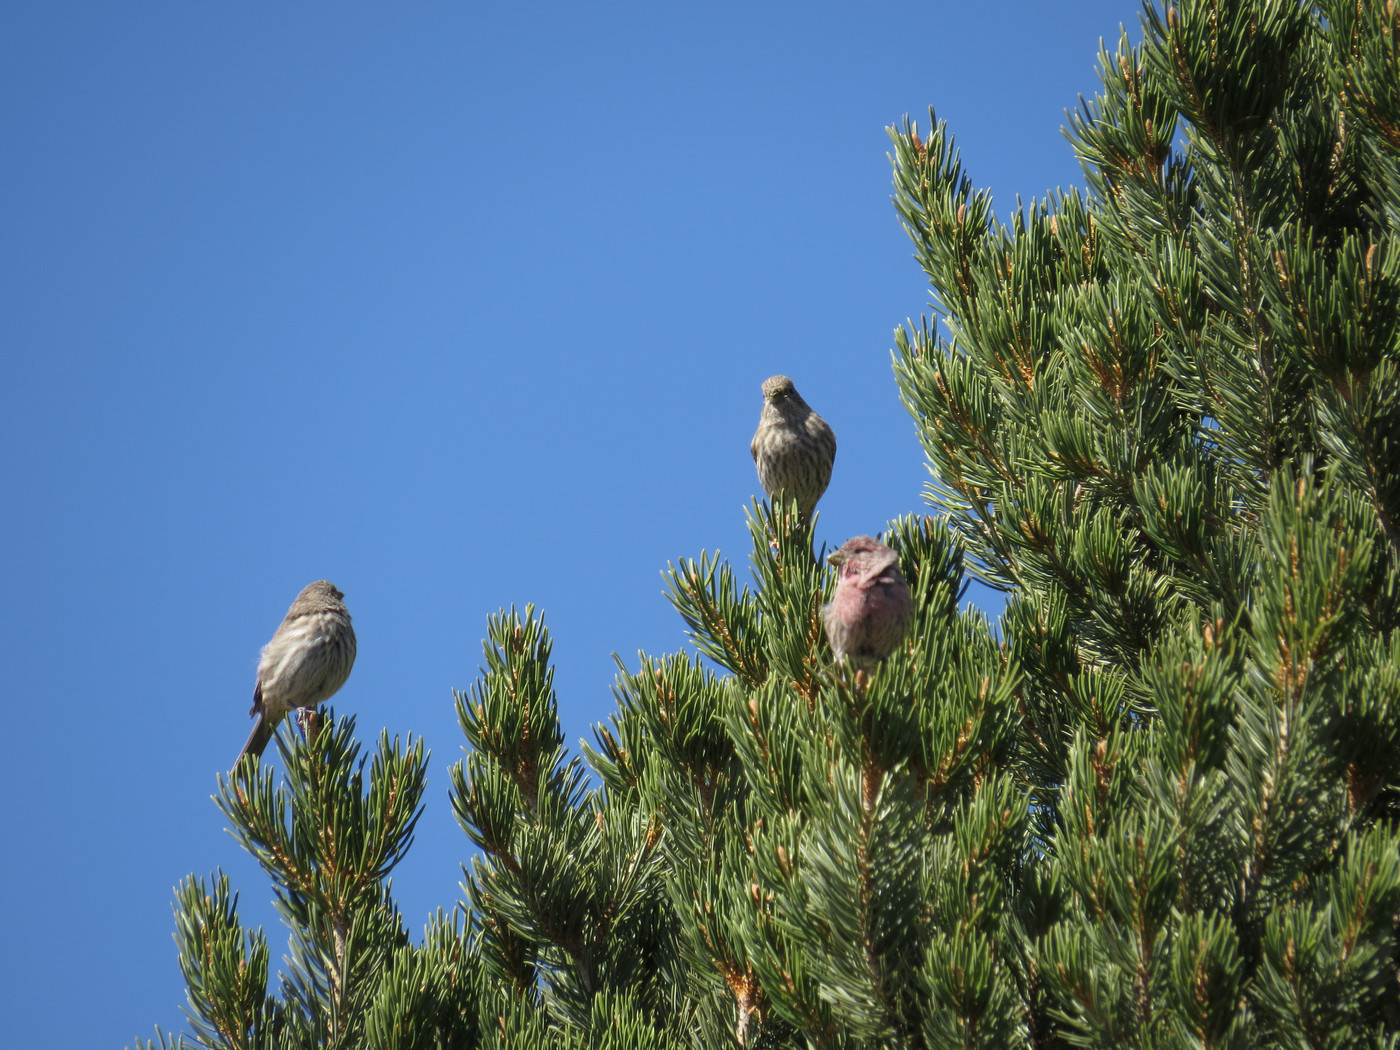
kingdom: Animalia
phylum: Chordata
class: Aves
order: Passeriformes
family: Fringillidae
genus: Haemorhous
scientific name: Haemorhous mexicanus
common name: House finch
